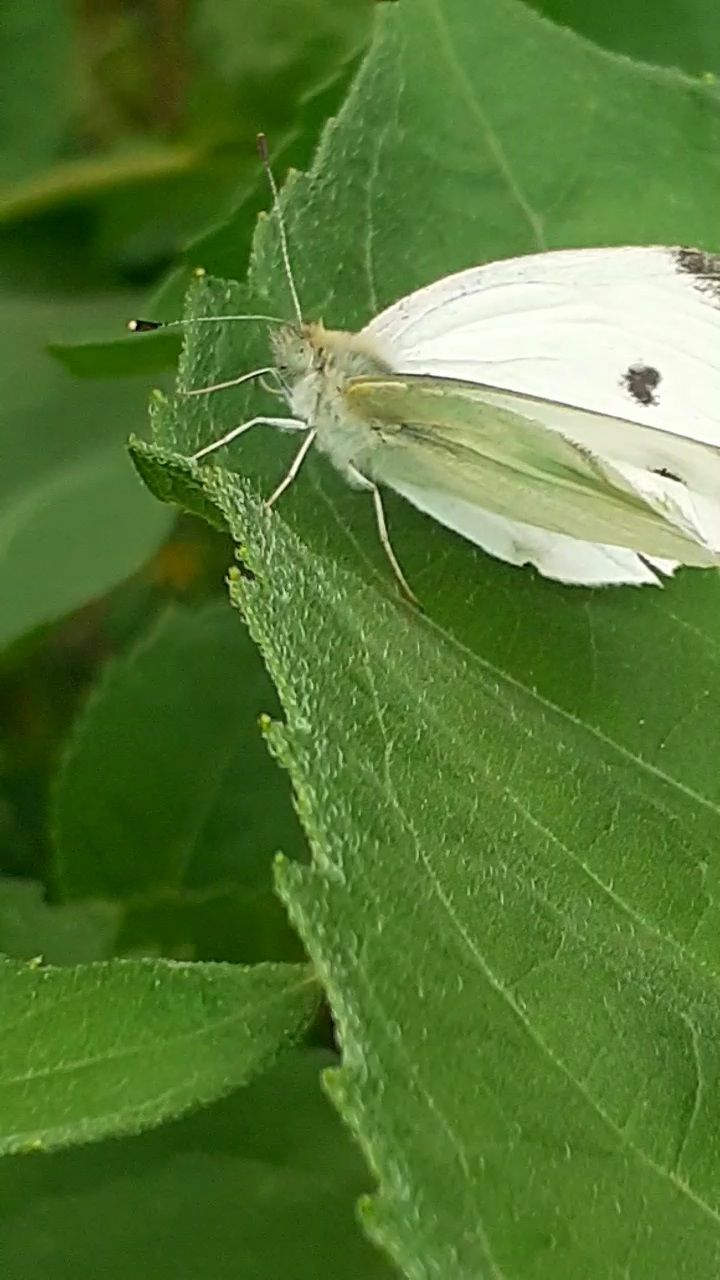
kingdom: Animalia
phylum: Arthropoda
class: Insecta
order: Lepidoptera
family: Pieridae
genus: Pieris
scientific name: Pieris rapae
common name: Small white
